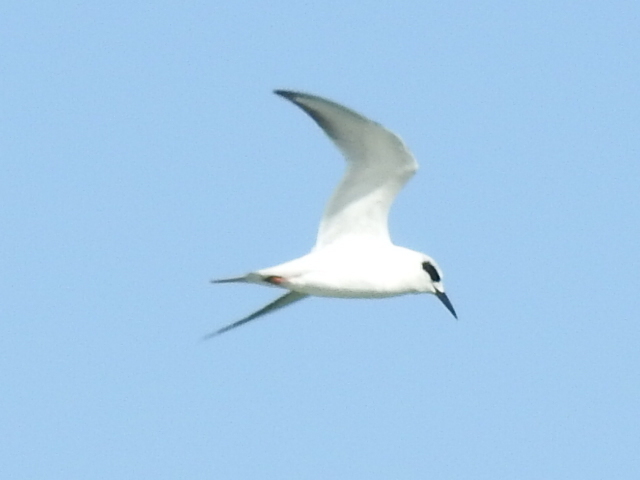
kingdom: Animalia
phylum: Chordata
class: Aves
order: Charadriiformes
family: Laridae
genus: Sterna
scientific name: Sterna forsteri
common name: Forster's tern
